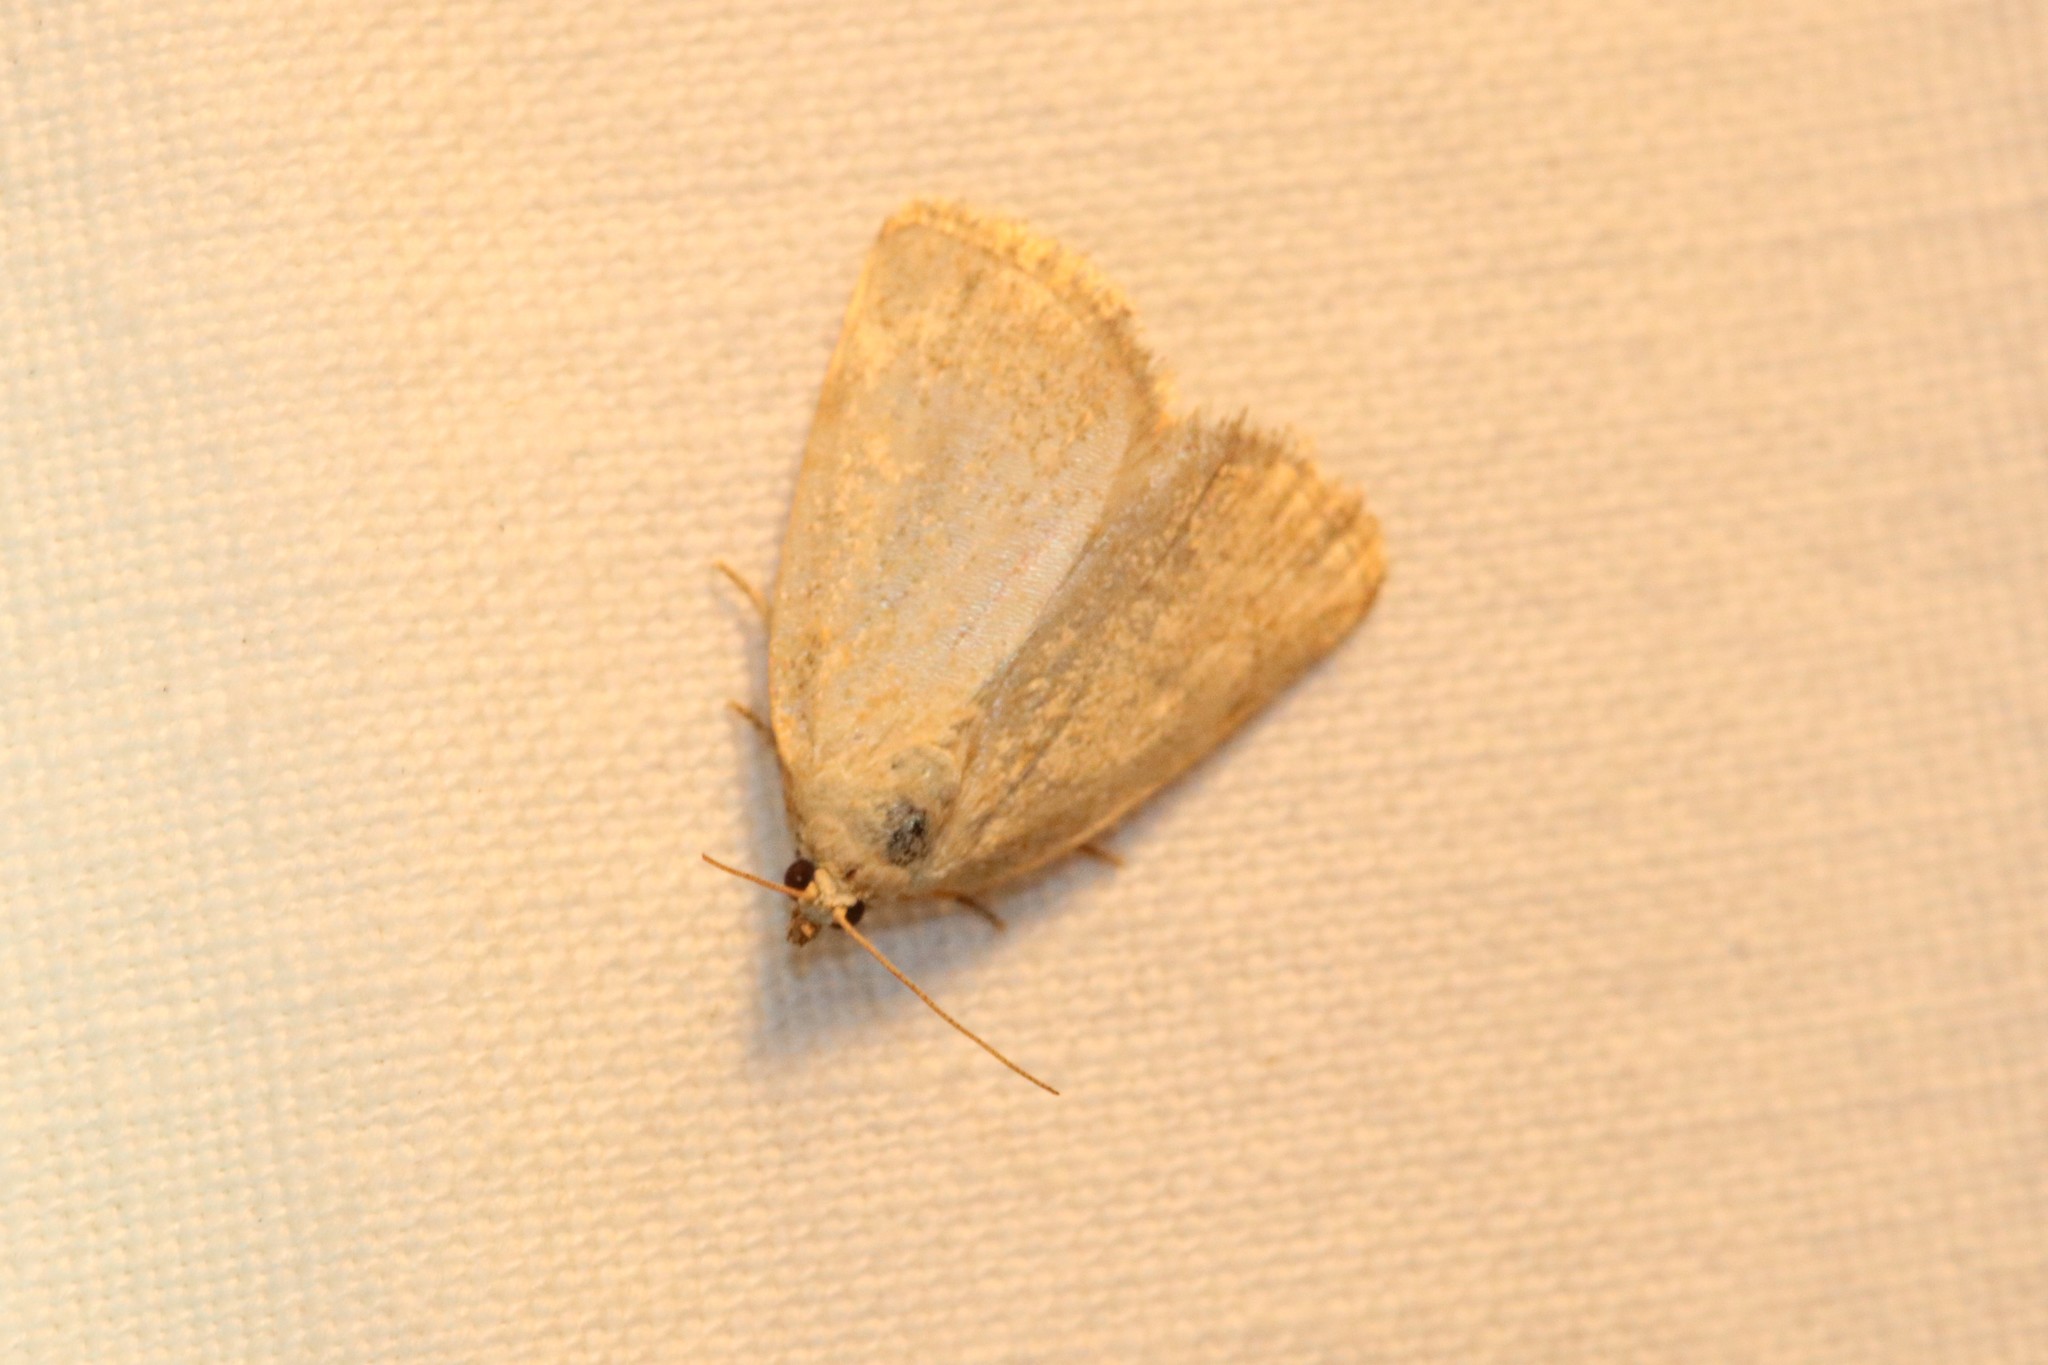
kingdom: Animalia
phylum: Arthropoda
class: Insecta
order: Lepidoptera
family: Noctuidae
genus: Protodeltote
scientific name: Protodeltote albidula
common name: Pale glyph
